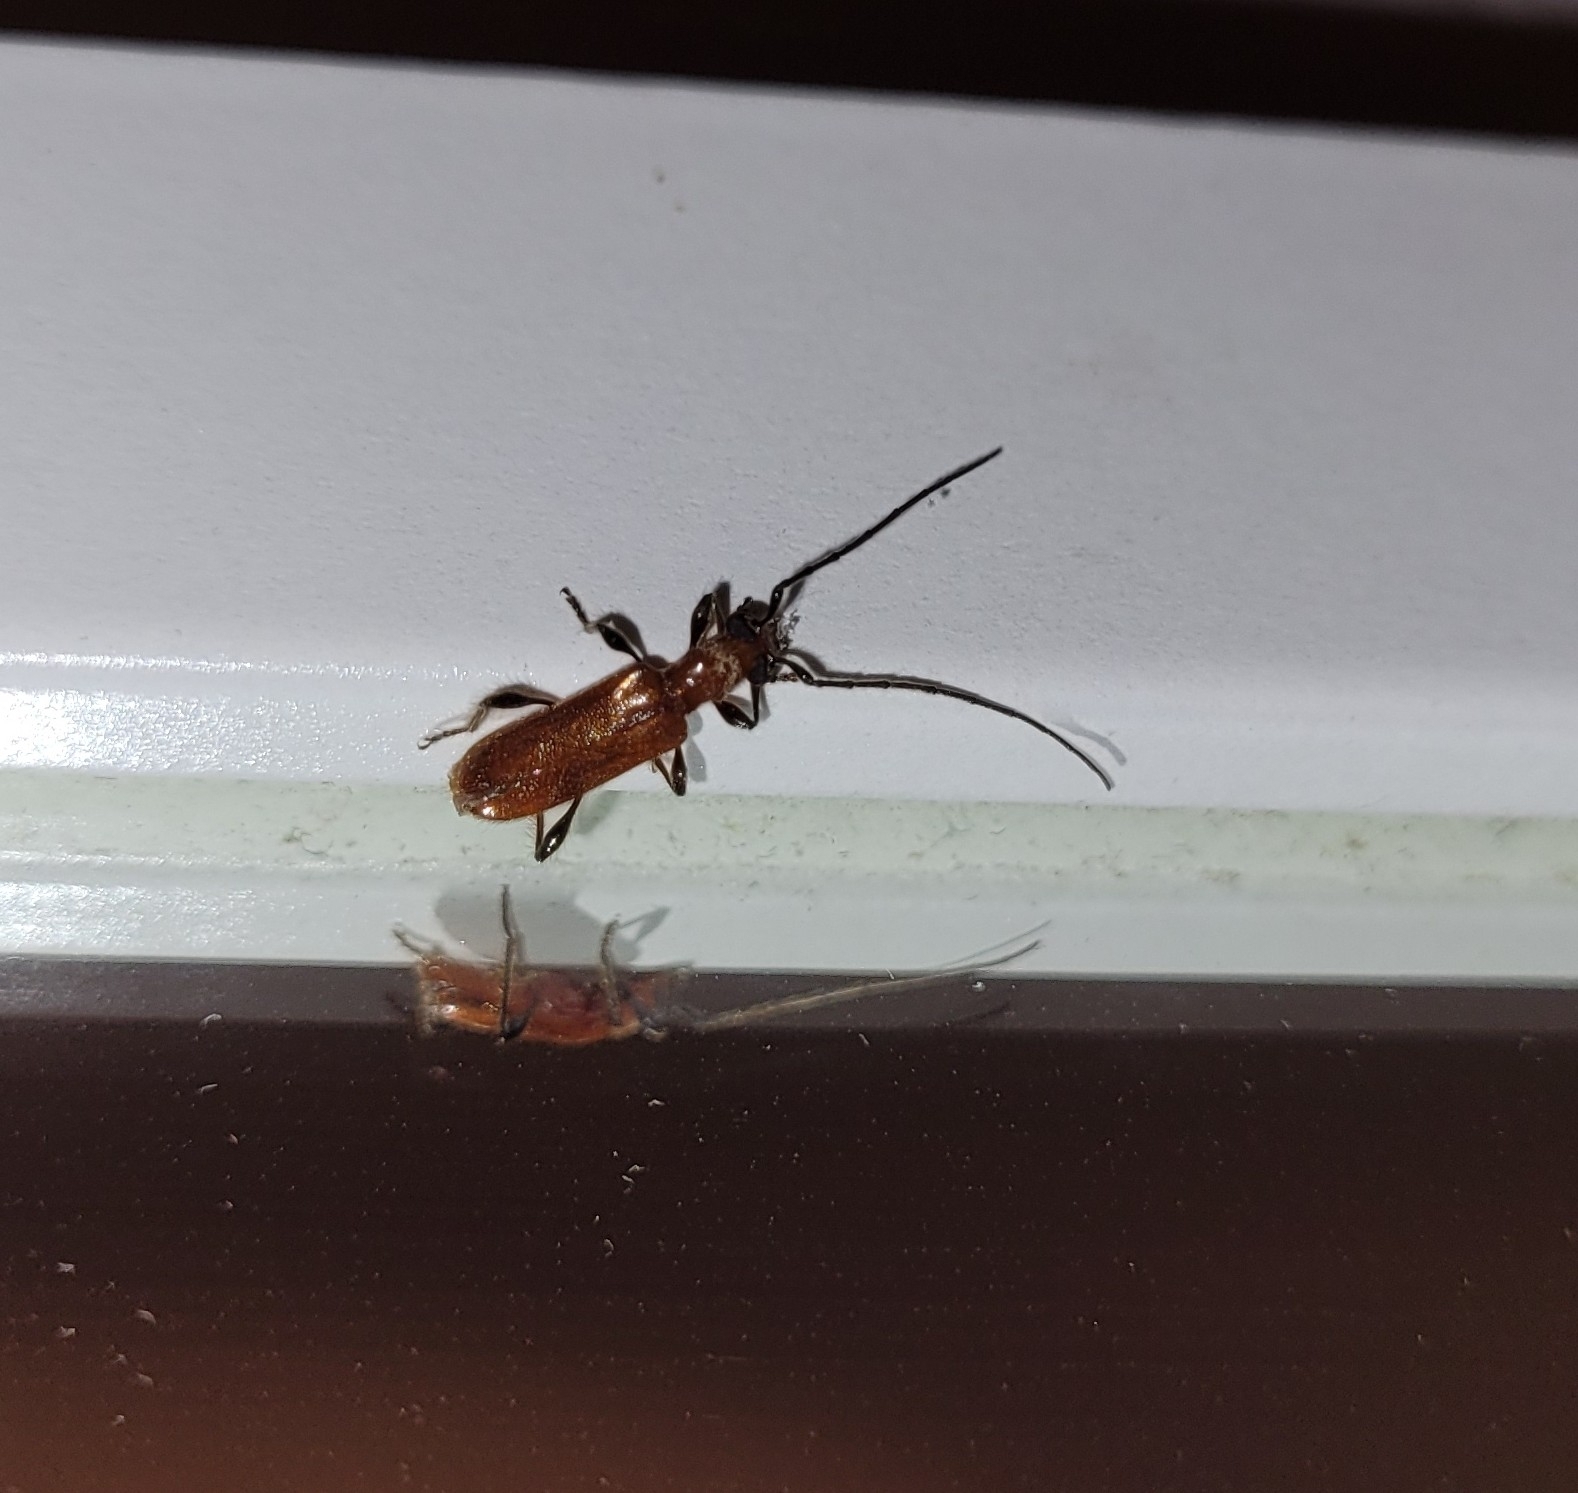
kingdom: Animalia
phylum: Arthropoda
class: Insecta
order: Coleoptera
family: Cerambycidae
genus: Obrium
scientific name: Obrium cantharinum
